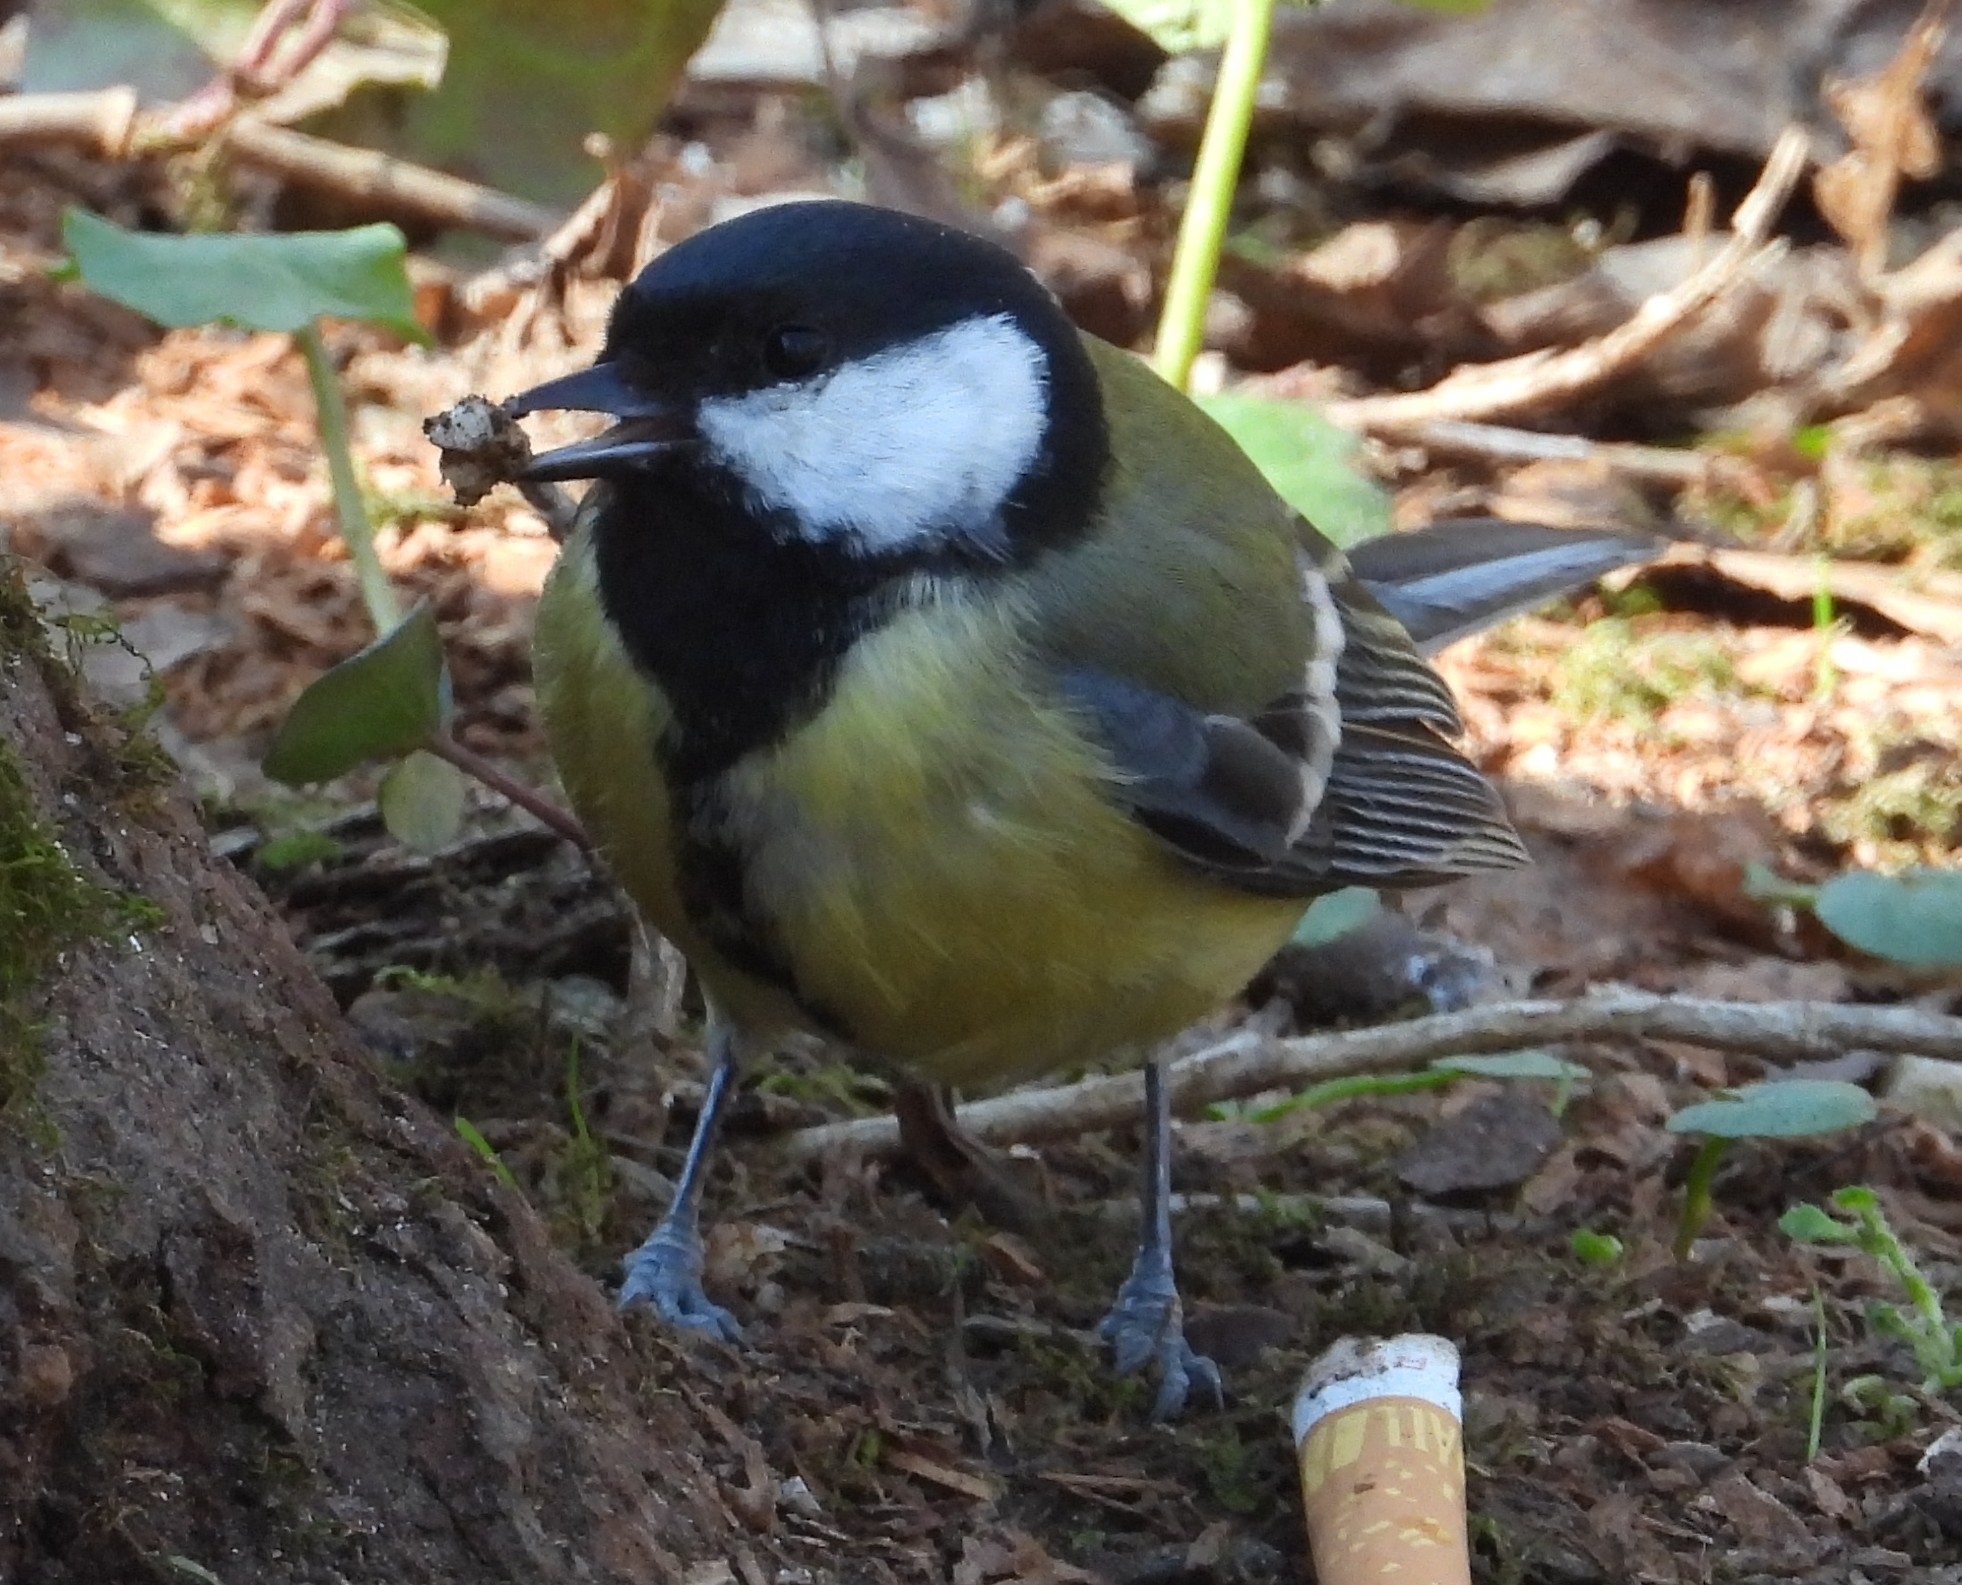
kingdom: Animalia
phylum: Chordata
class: Aves
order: Passeriformes
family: Paridae
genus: Parus
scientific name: Parus major
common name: Great tit
